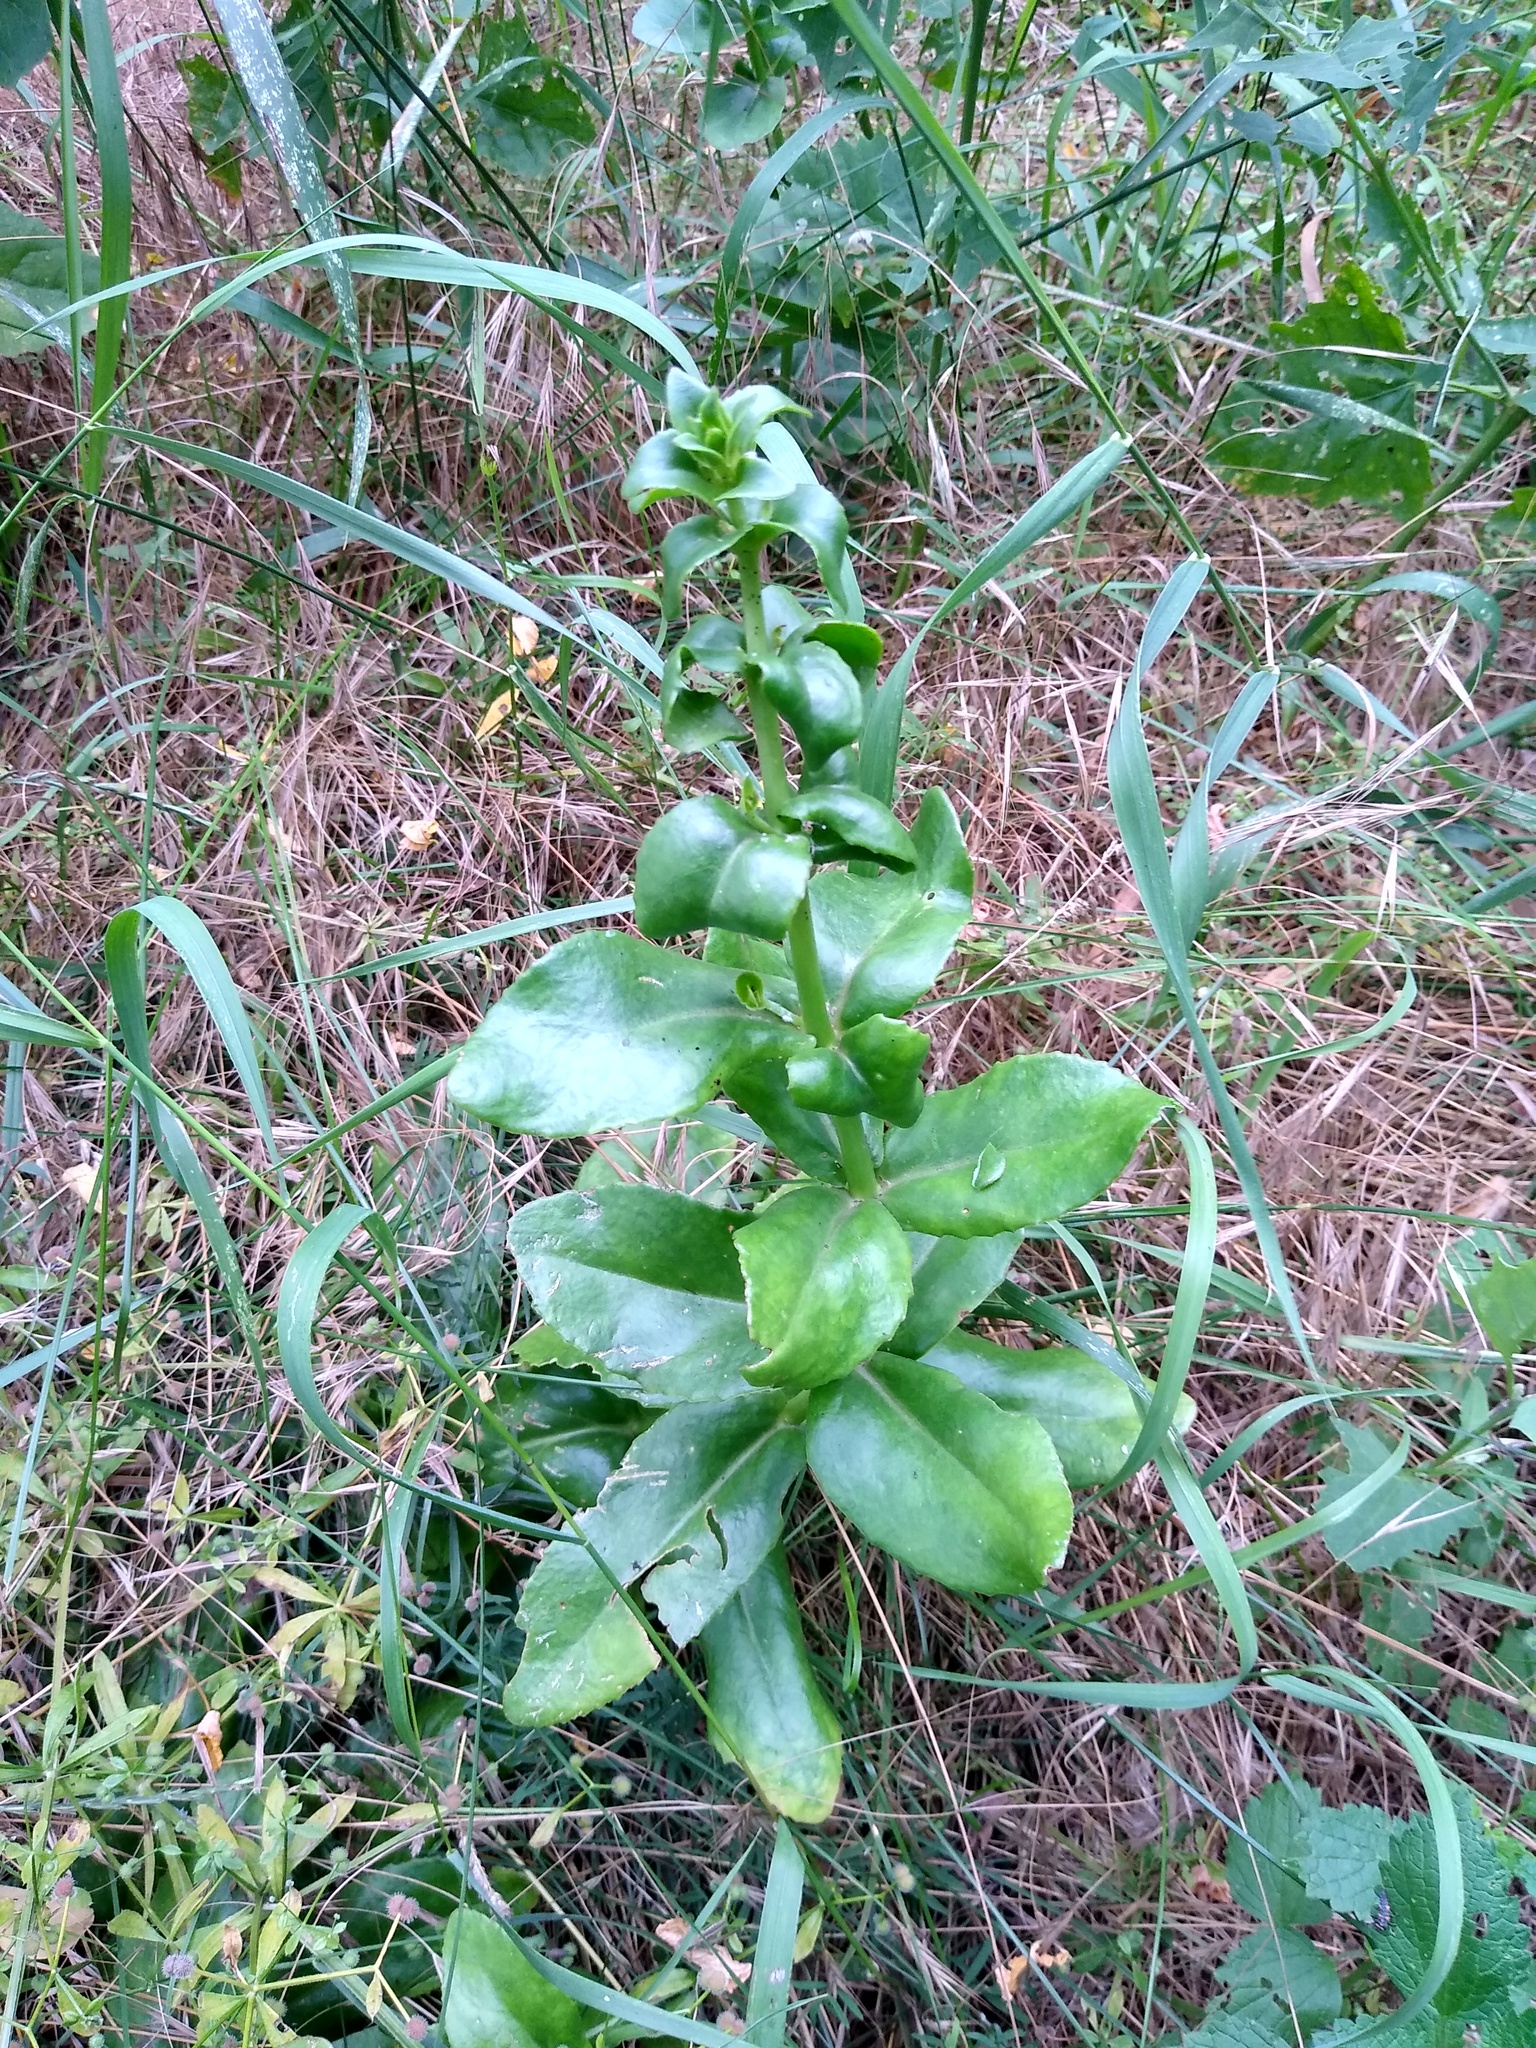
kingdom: Plantae
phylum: Tracheophyta
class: Magnoliopsida
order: Saxifragales
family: Crassulaceae
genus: Hylotelephium
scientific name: Hylotelephium maximum
